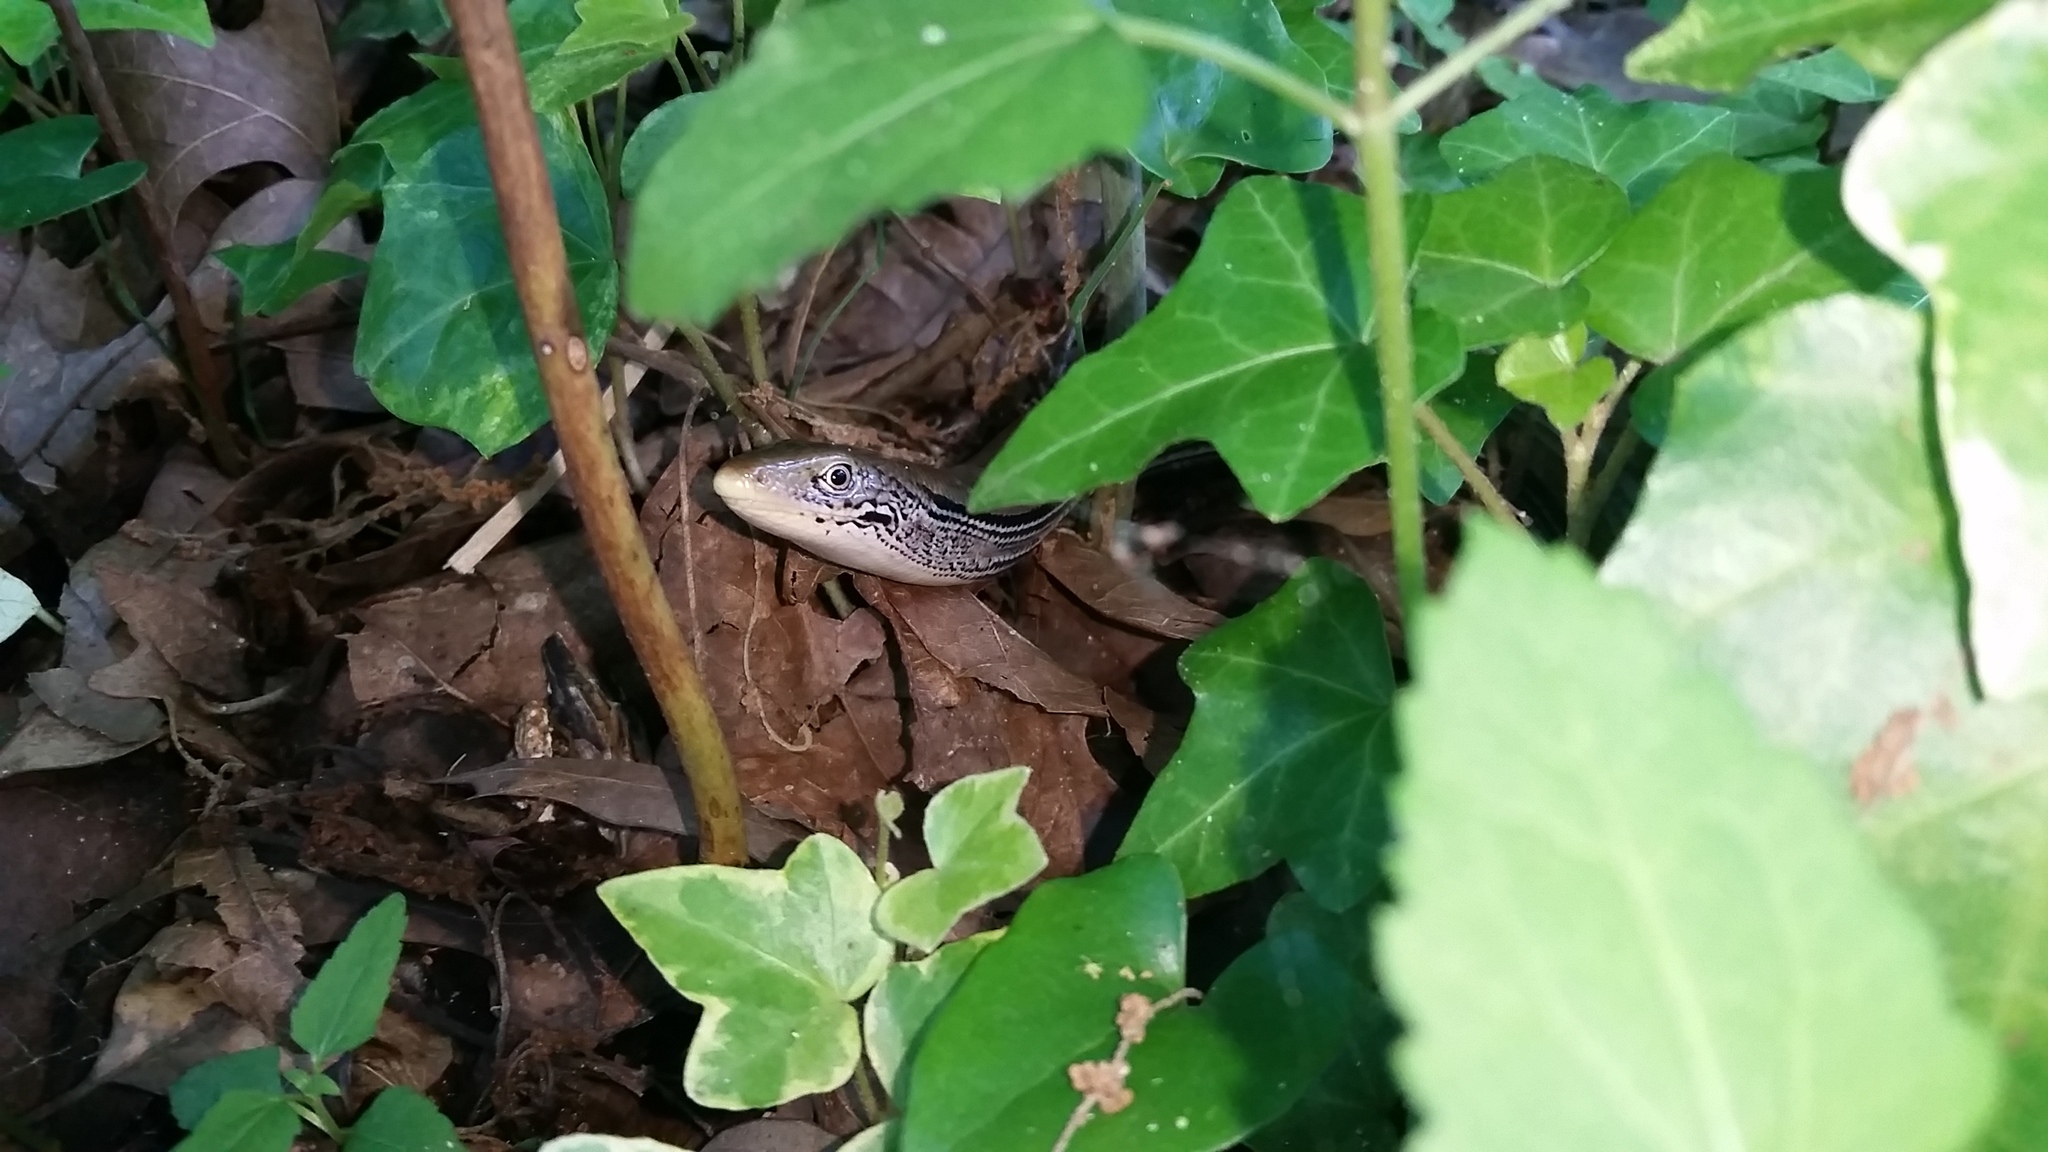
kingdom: Animalia
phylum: Chordata
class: Squamata
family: Anguidae
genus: Ophisaurus
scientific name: Ophisaurus attenuatus
